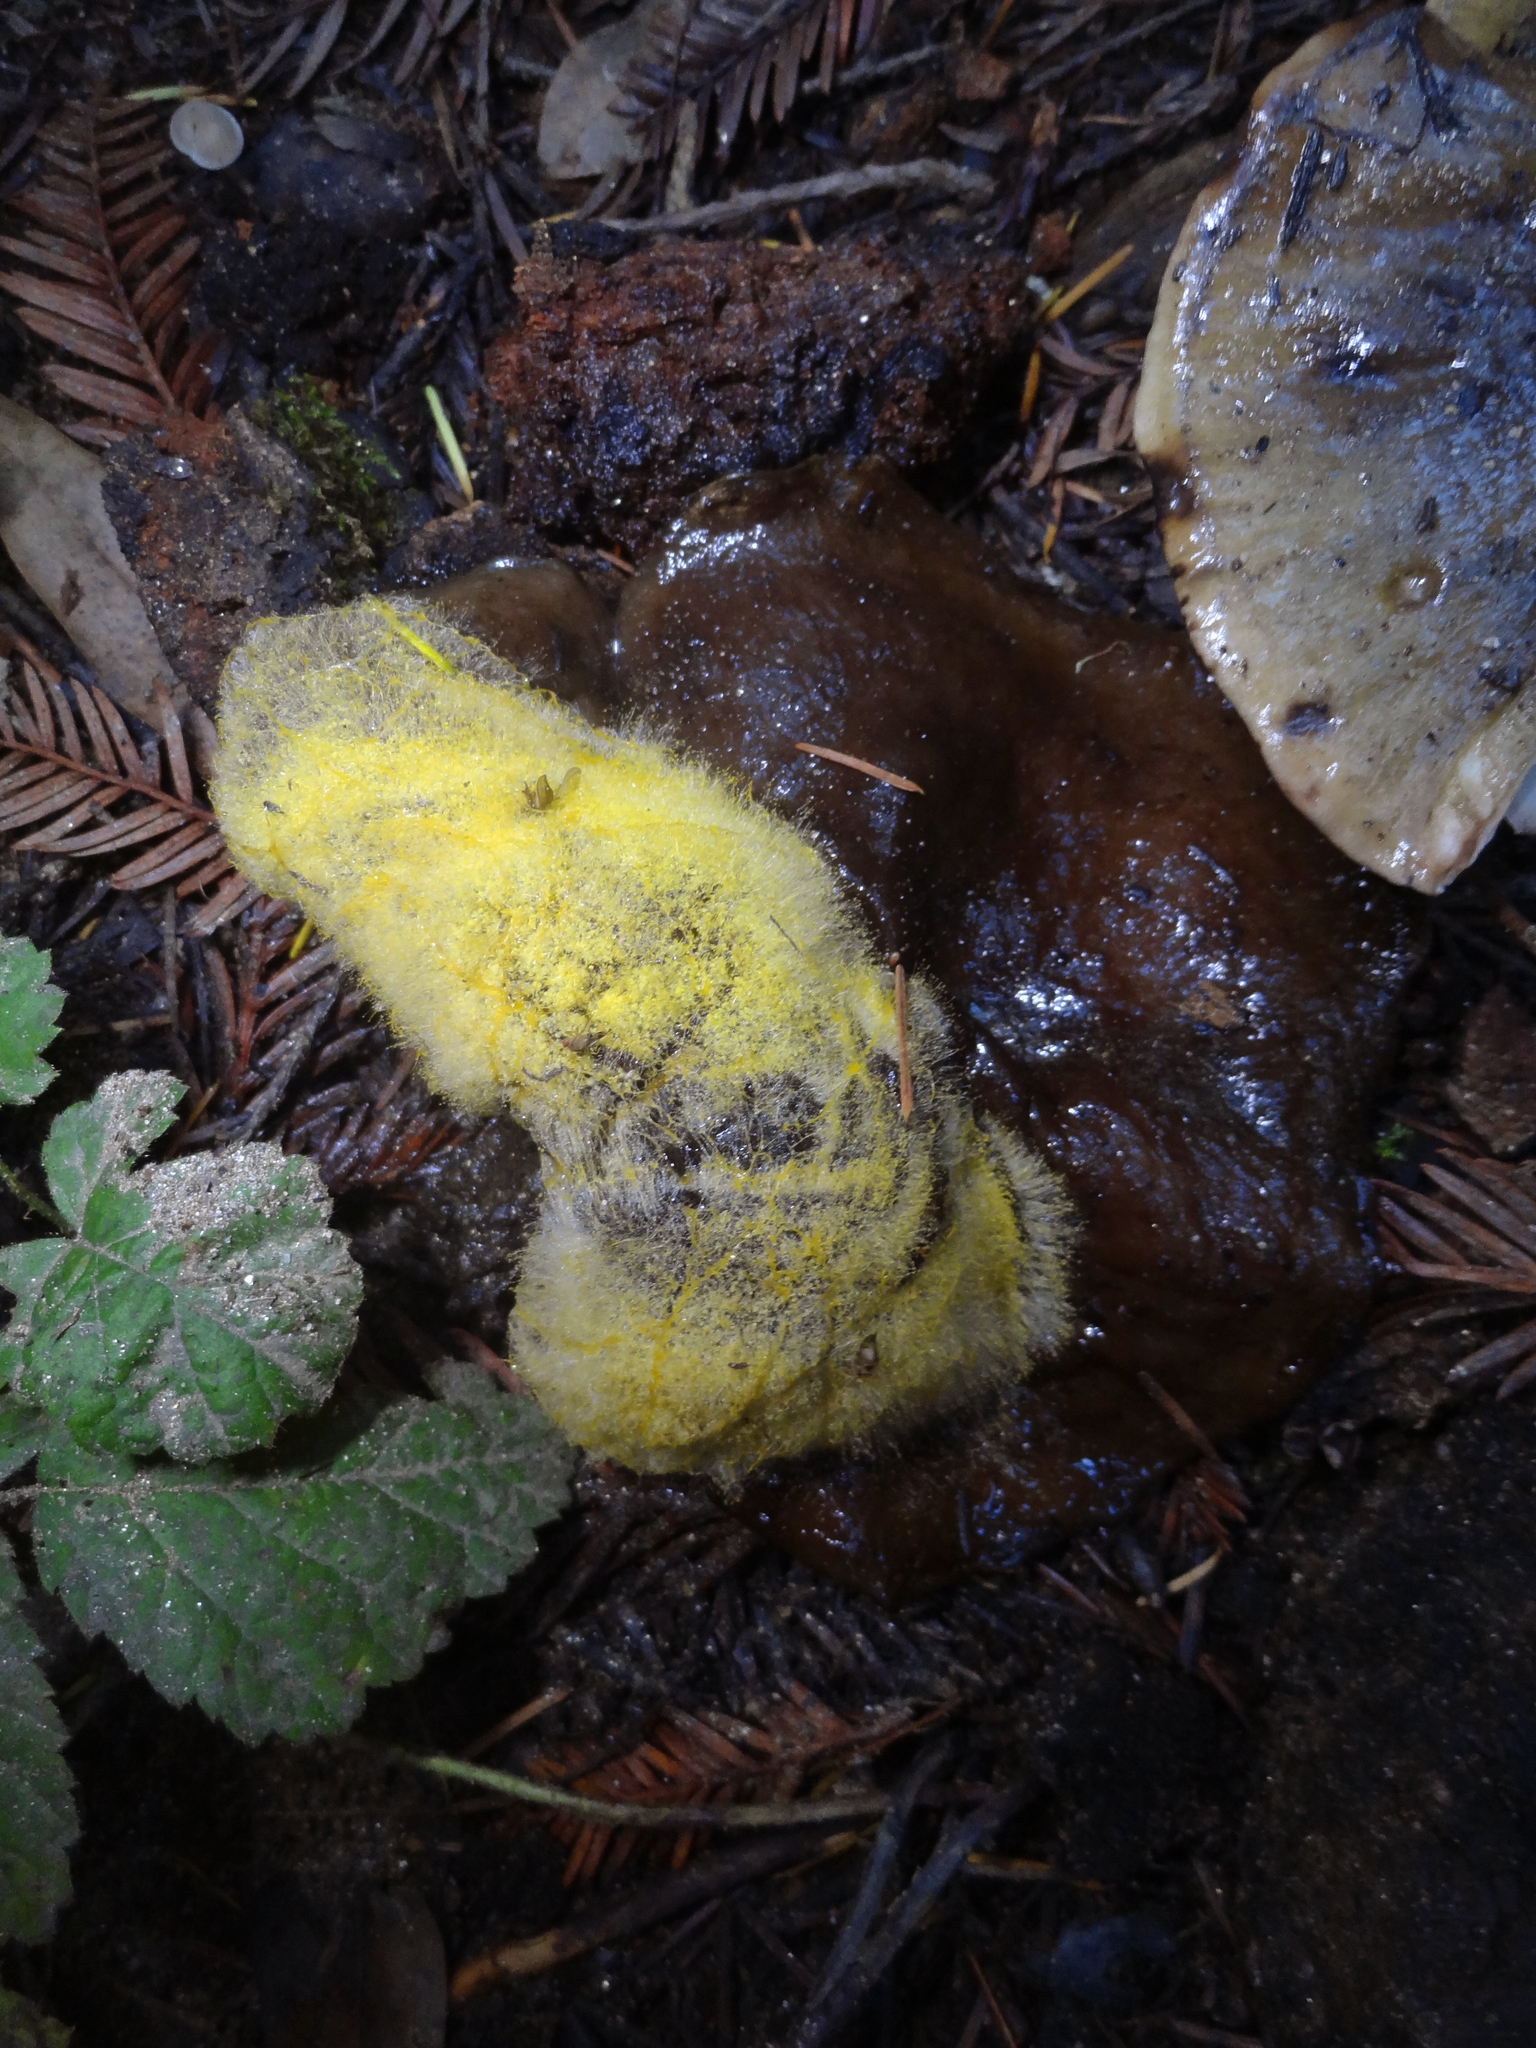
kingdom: Fungi
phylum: Mucoromycota
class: Mucoromycetes
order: Mucorales
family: Mucoraceae
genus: Dicranophora
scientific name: Dicranophora fulva
